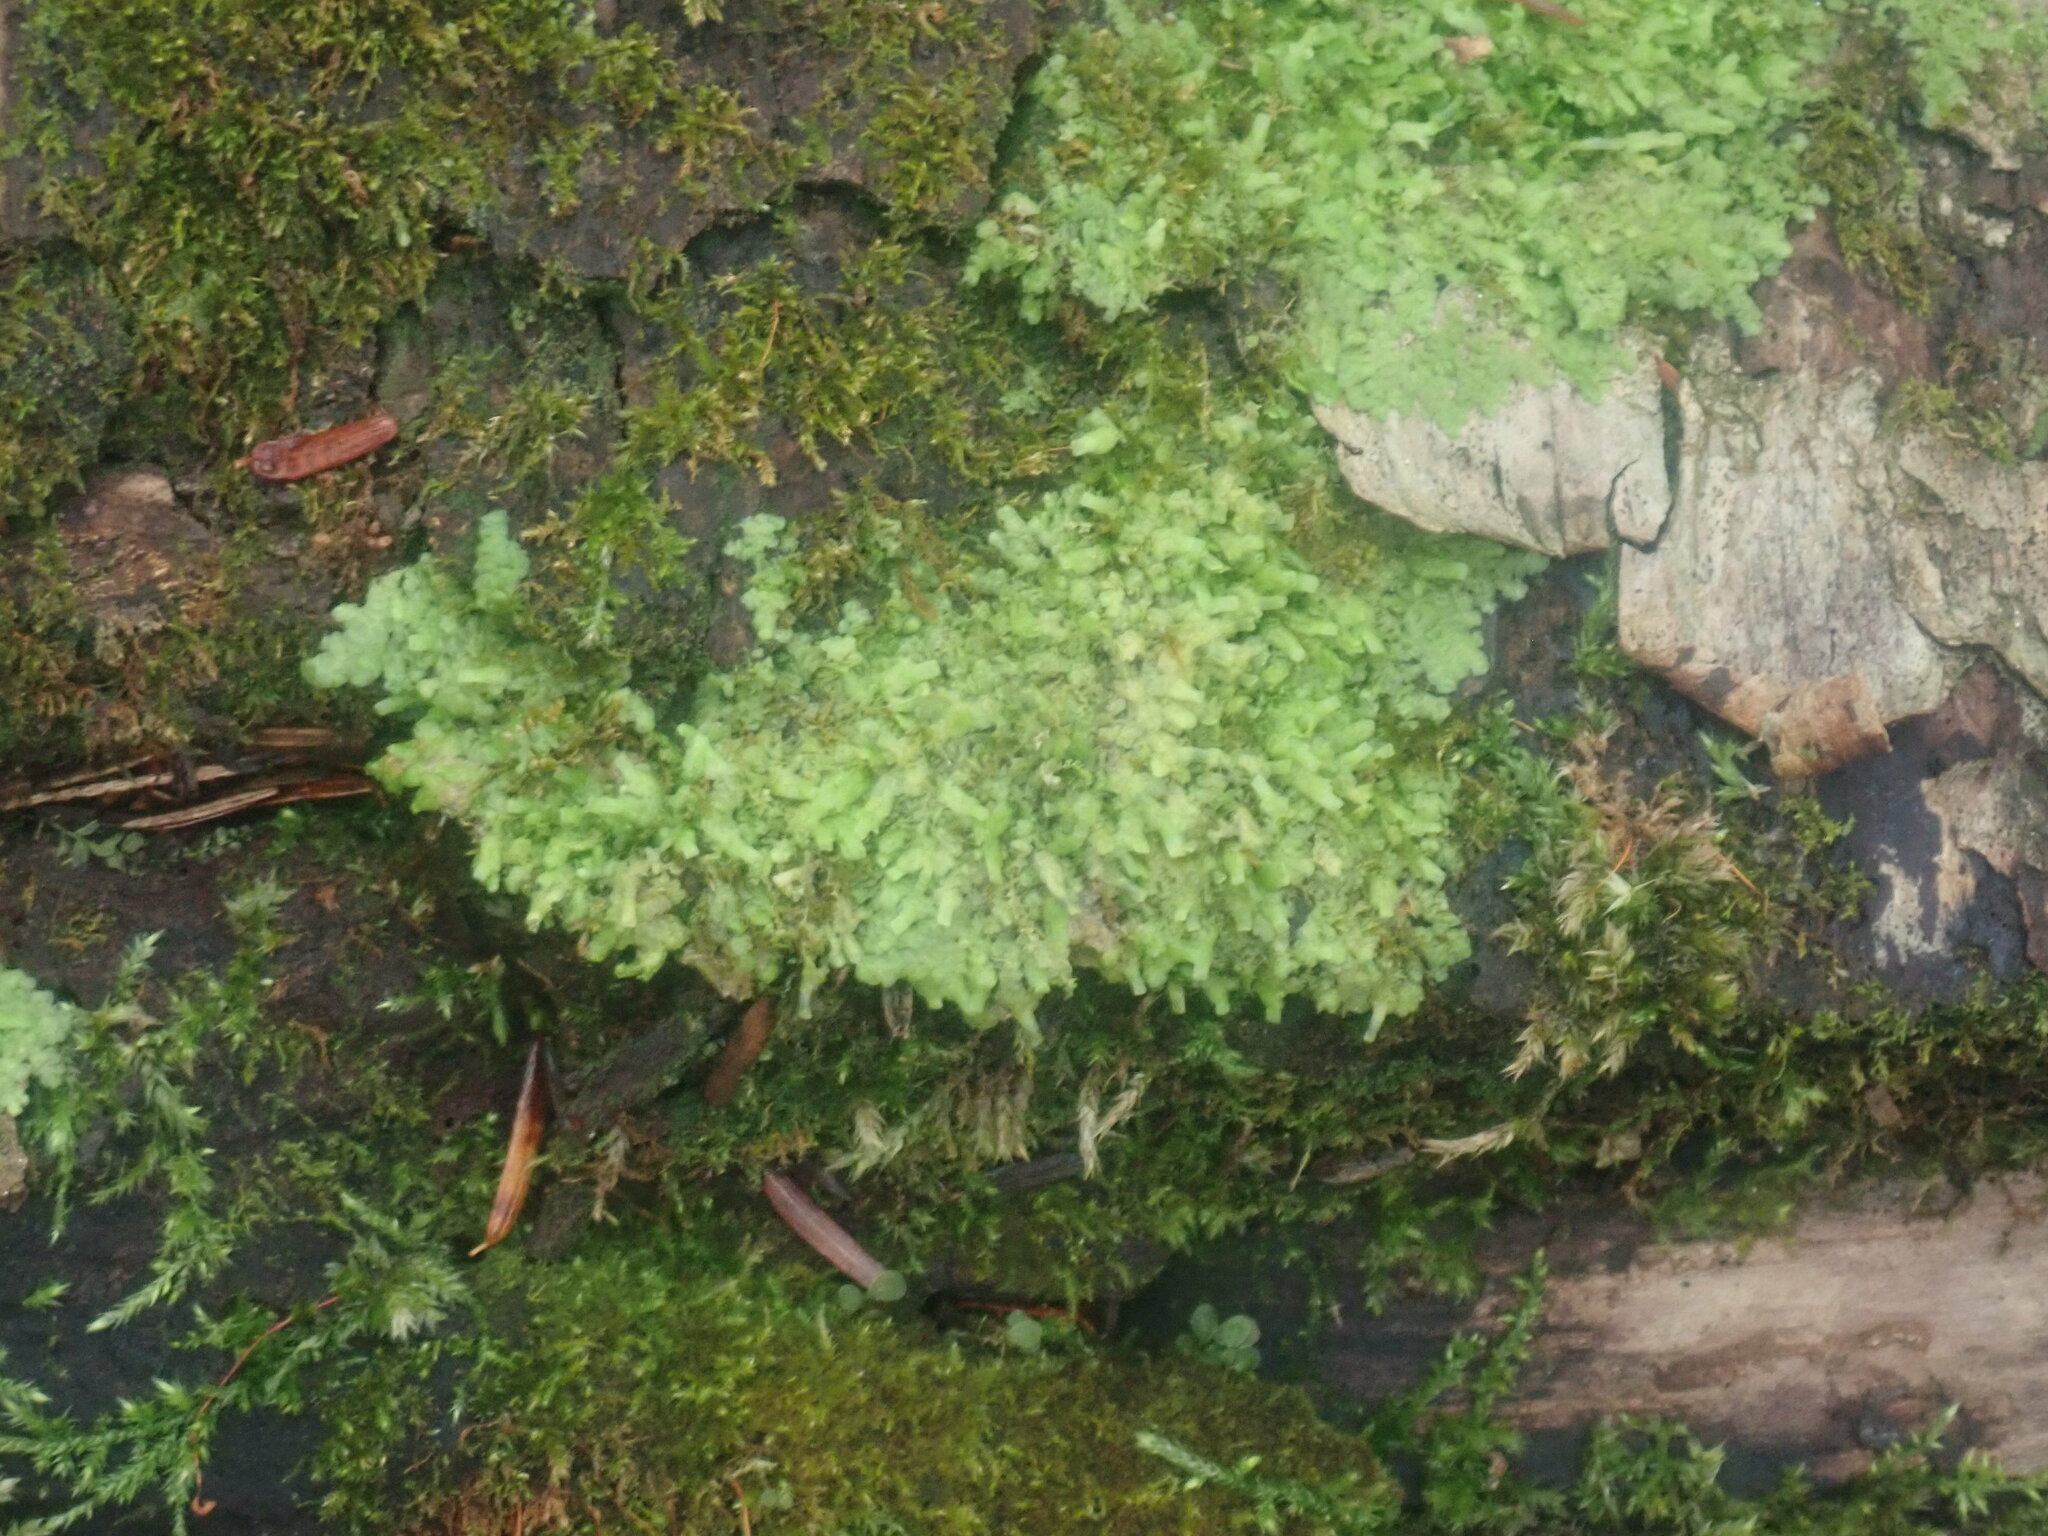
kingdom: Plantae
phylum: Marchantiophyta
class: Jungermanniopsida
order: Porellales
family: Radulaceae
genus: Radula
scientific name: Radula complanata
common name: Flat-leaved scalewort
